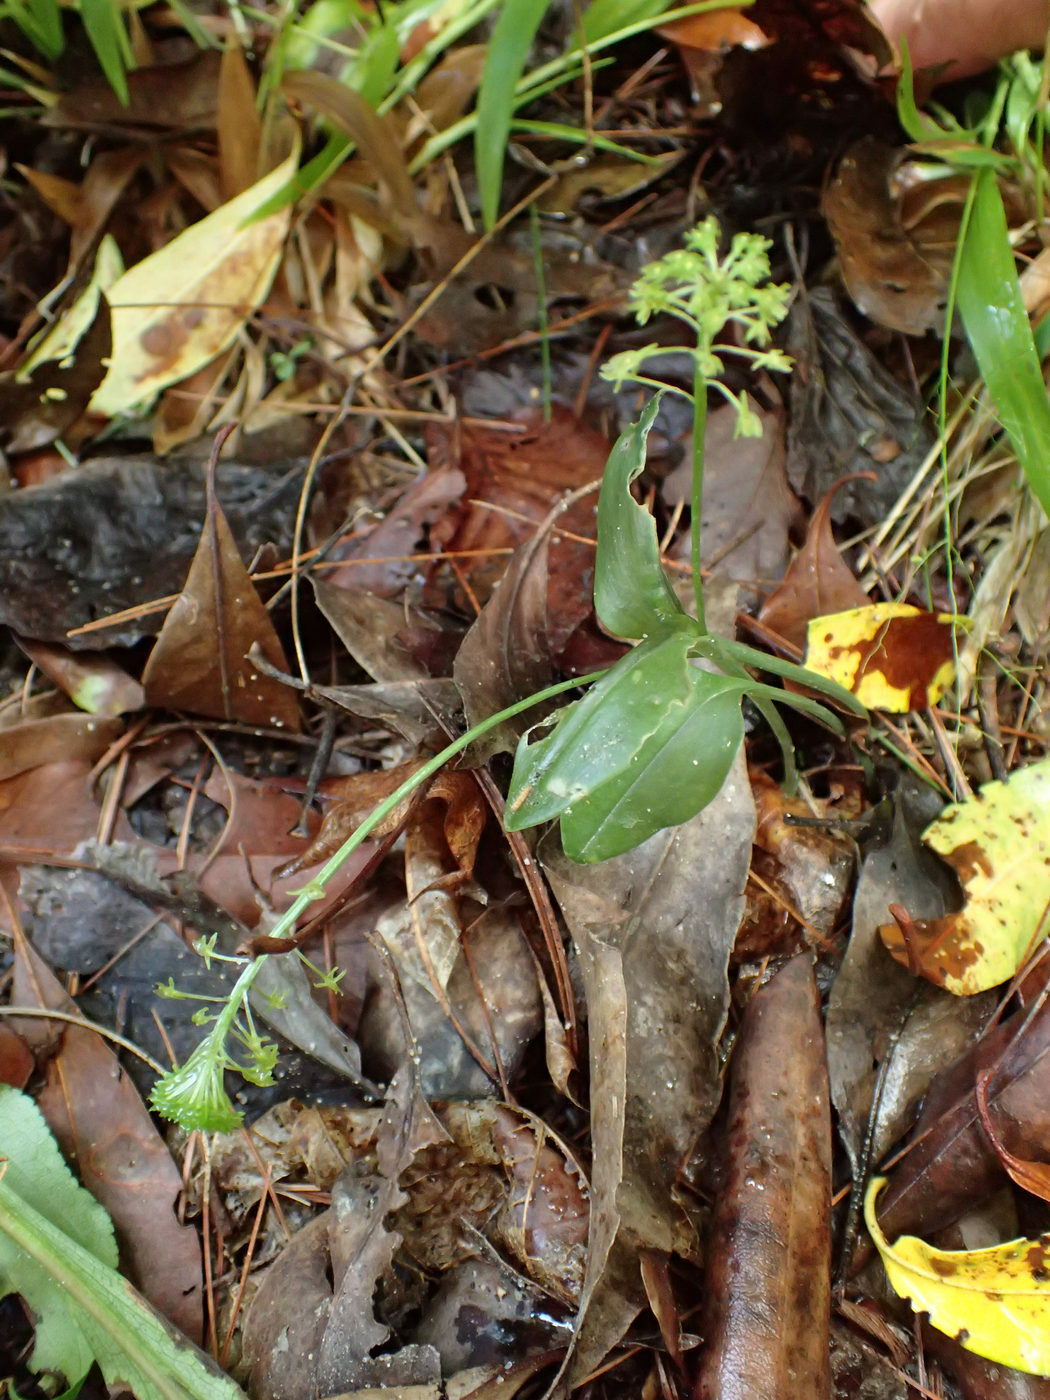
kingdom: Plantae
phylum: Tracheophyta
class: Liliopsida
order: Asparagales
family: Orchidaceae
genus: Malaxis
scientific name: Malaxis unifolia
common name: Green adder's-mouth
